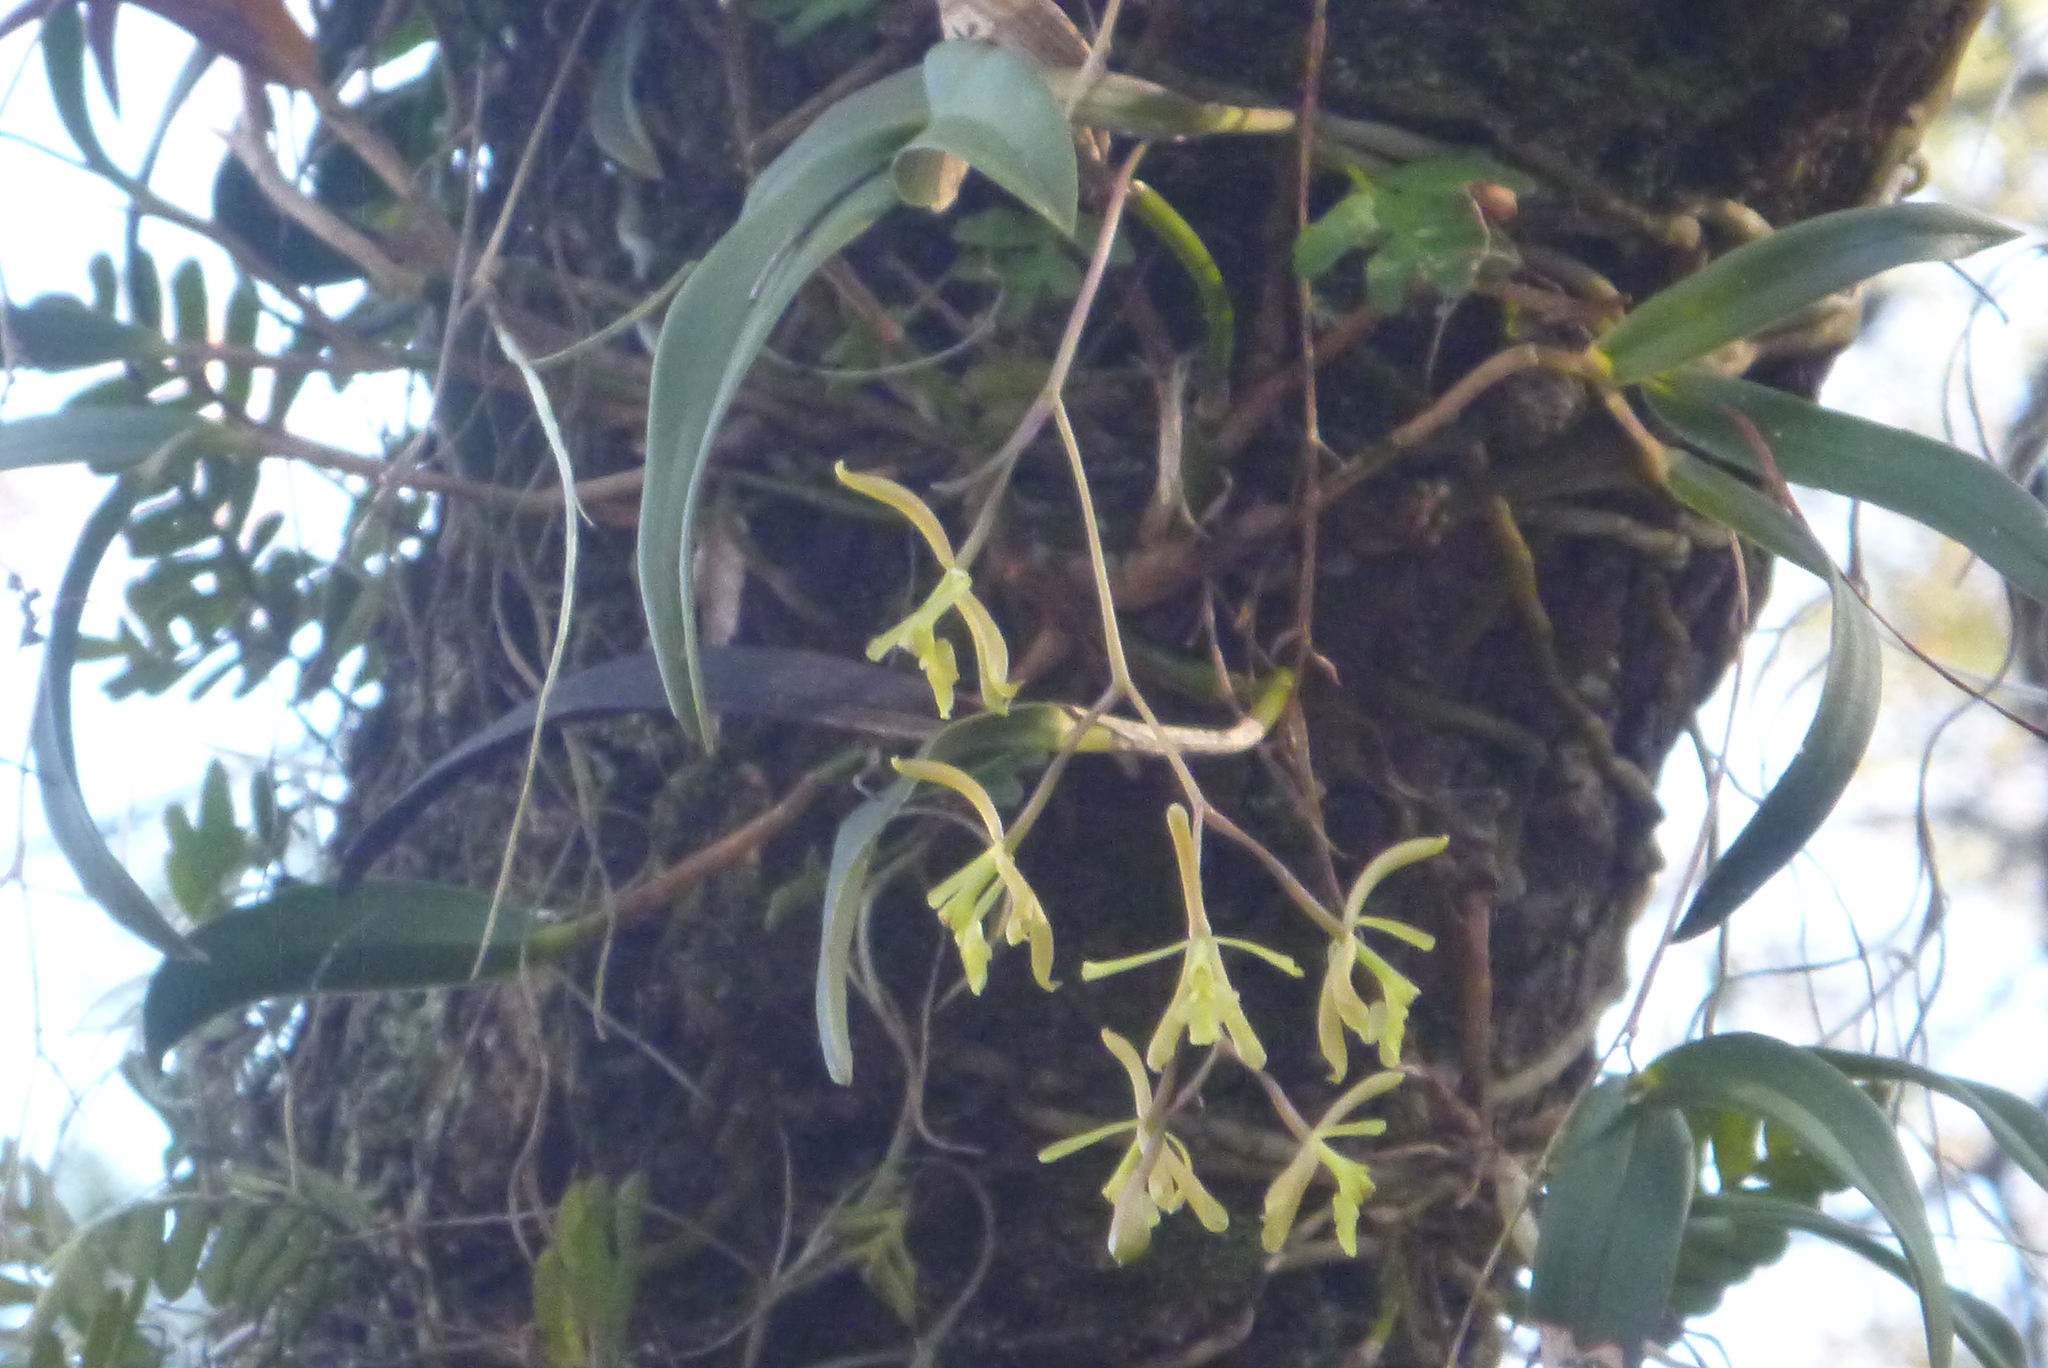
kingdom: Plantae
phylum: Tracheophyta
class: Liliopsida
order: Asparagales
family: Orchidaceae
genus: Epidendrum
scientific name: Epidendrum conopseum
